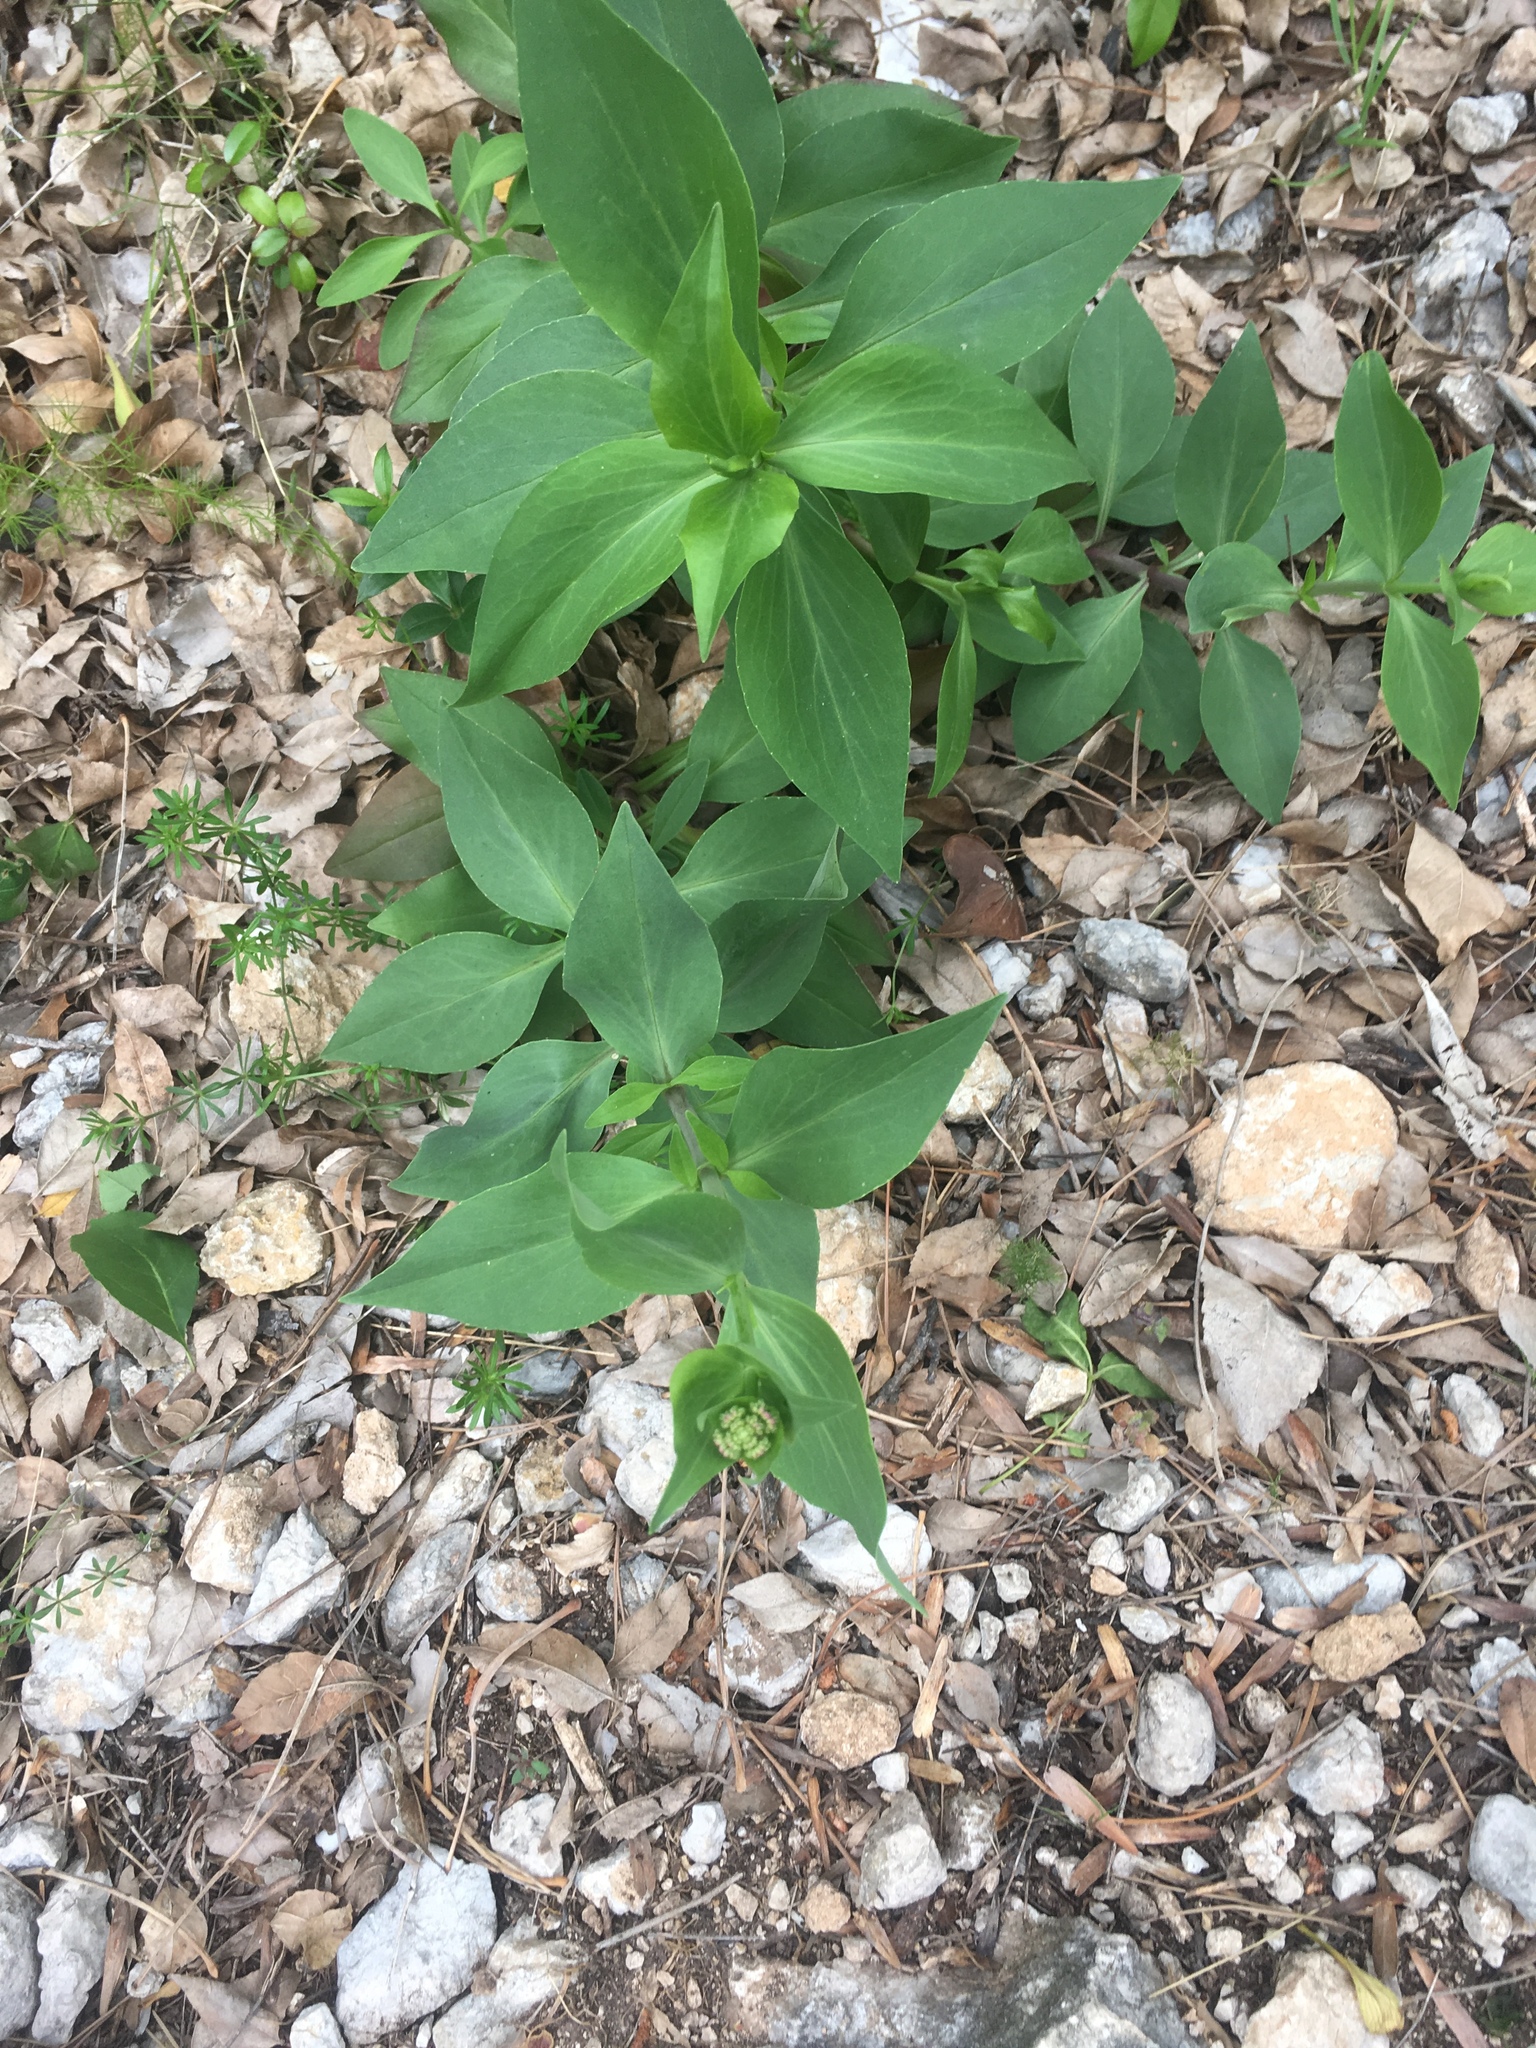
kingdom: Plantae
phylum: Tracheophyta
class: Magnoliopsida
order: Dipsacales
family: Caprifoliaceae
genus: Centranthus
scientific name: Centranthus ruber
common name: Red valerian
